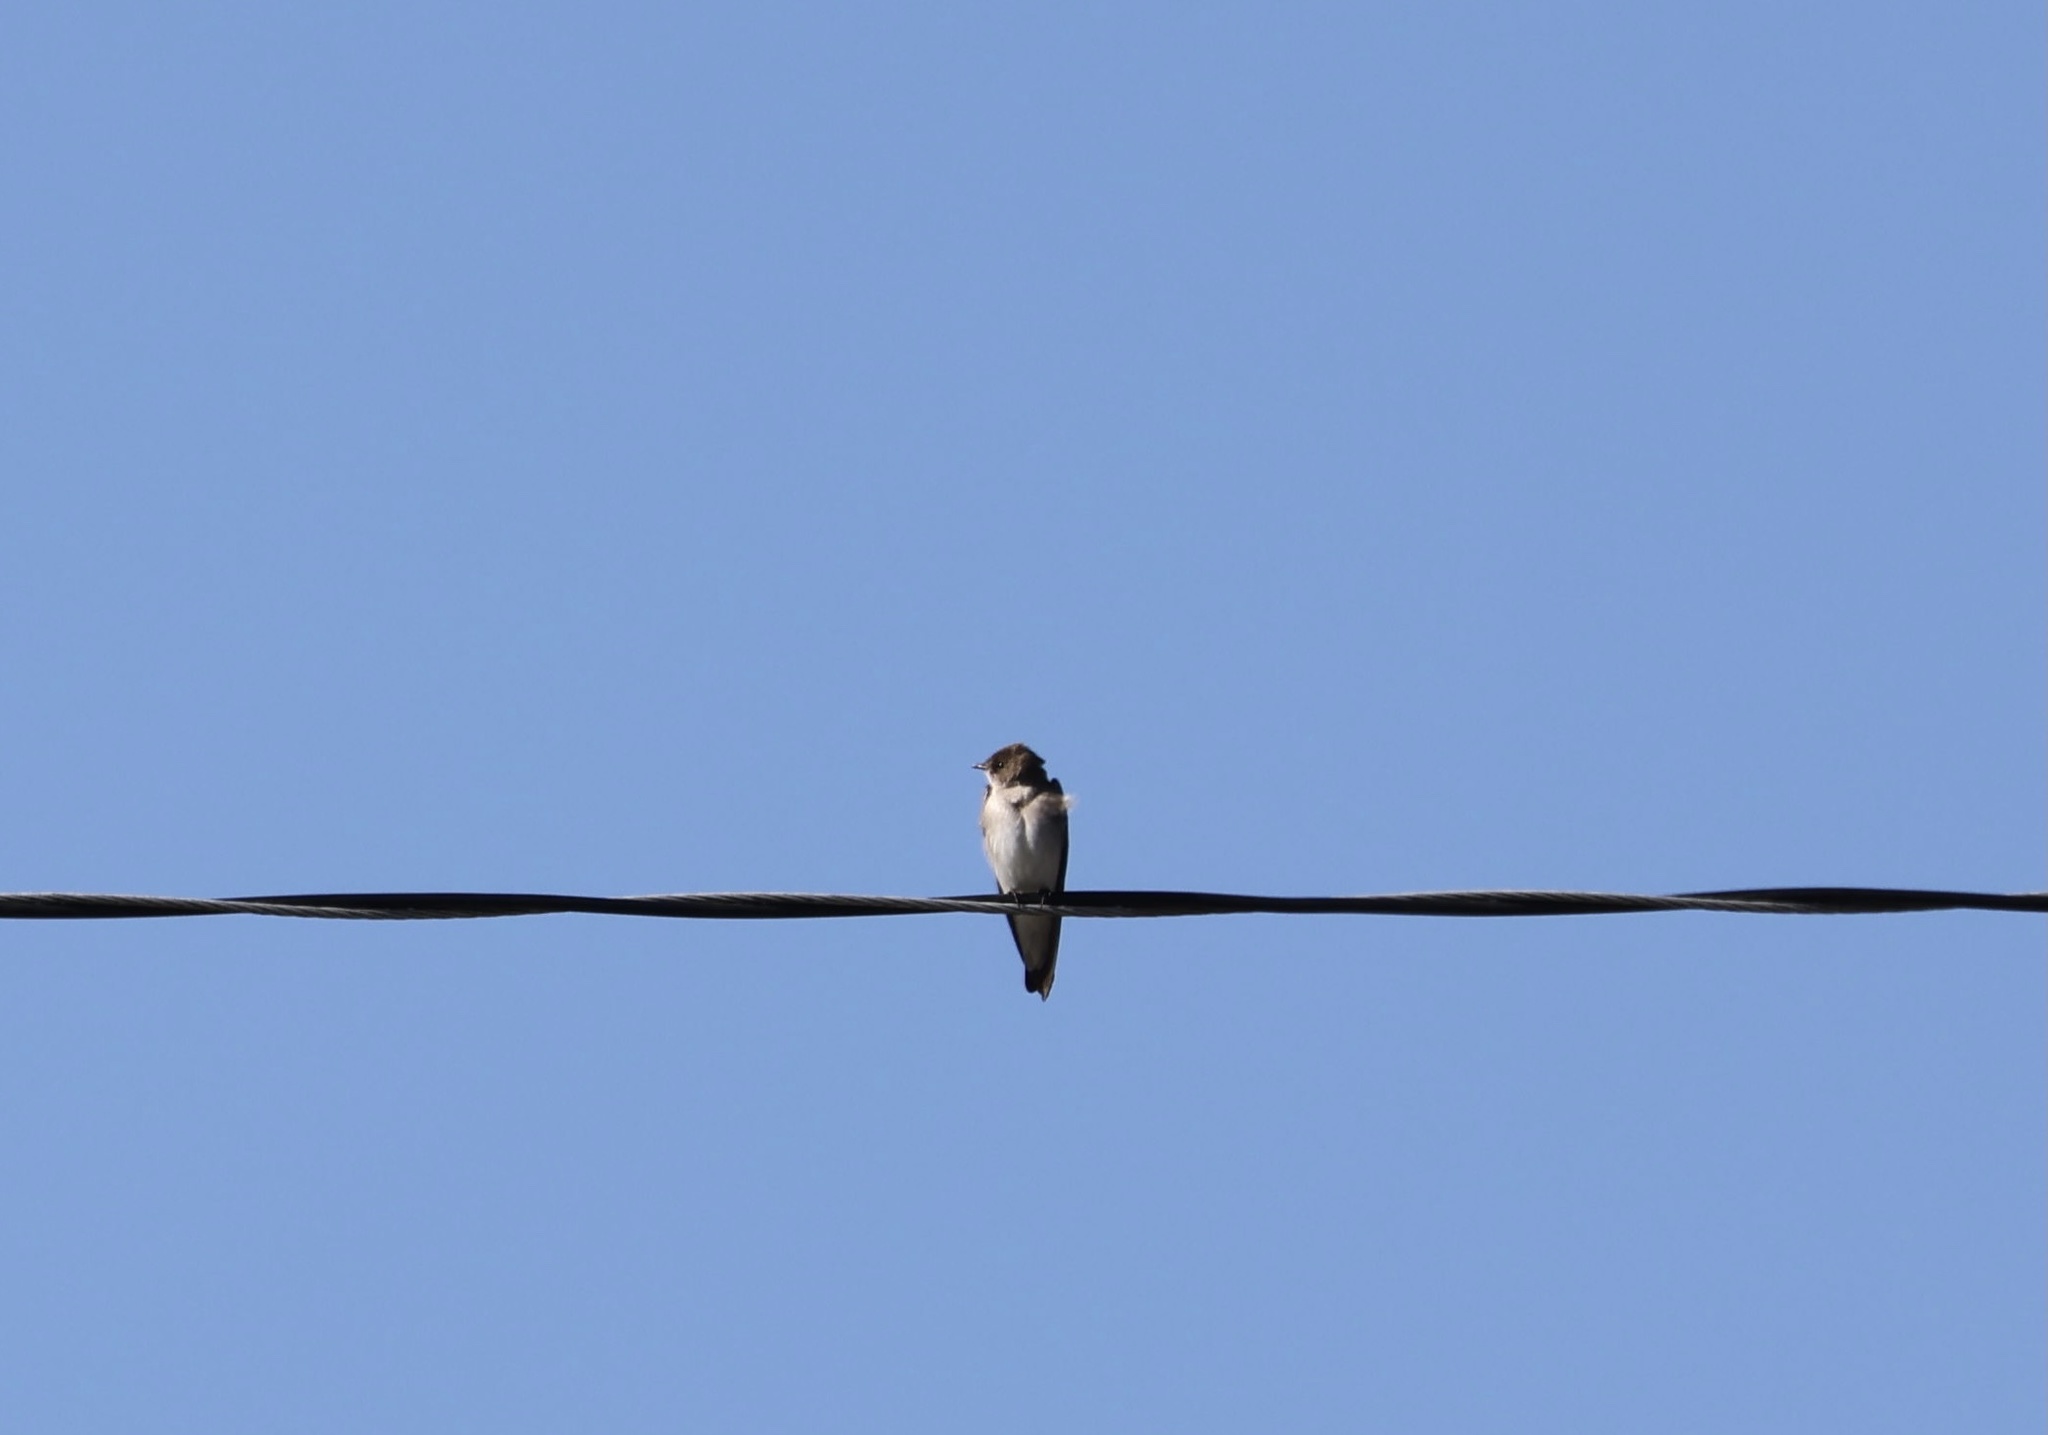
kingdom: Animalia
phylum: Chordata
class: Aves
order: Passeriformes
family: Hirundinidae
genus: Stelgidopteryx
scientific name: Stelgidopteryx serripennis
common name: Northern rough-winged swallow
